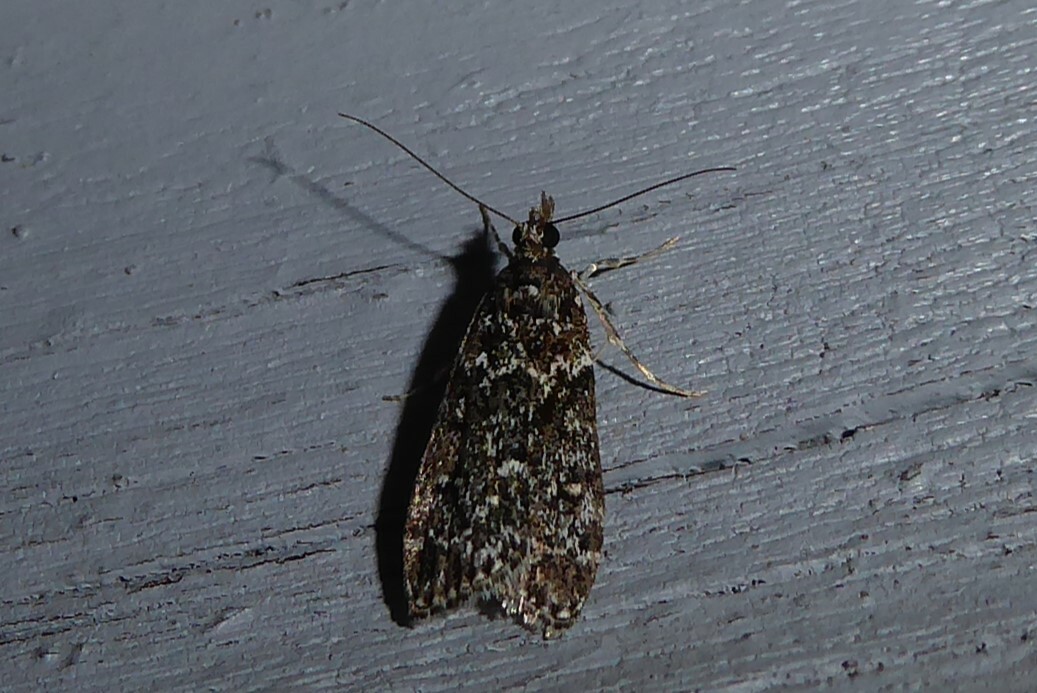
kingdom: Animalia
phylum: Arthropoda
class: Insecta
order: Lepidoptera
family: Crambidae
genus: Eudonia
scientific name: Eudonia philerga
